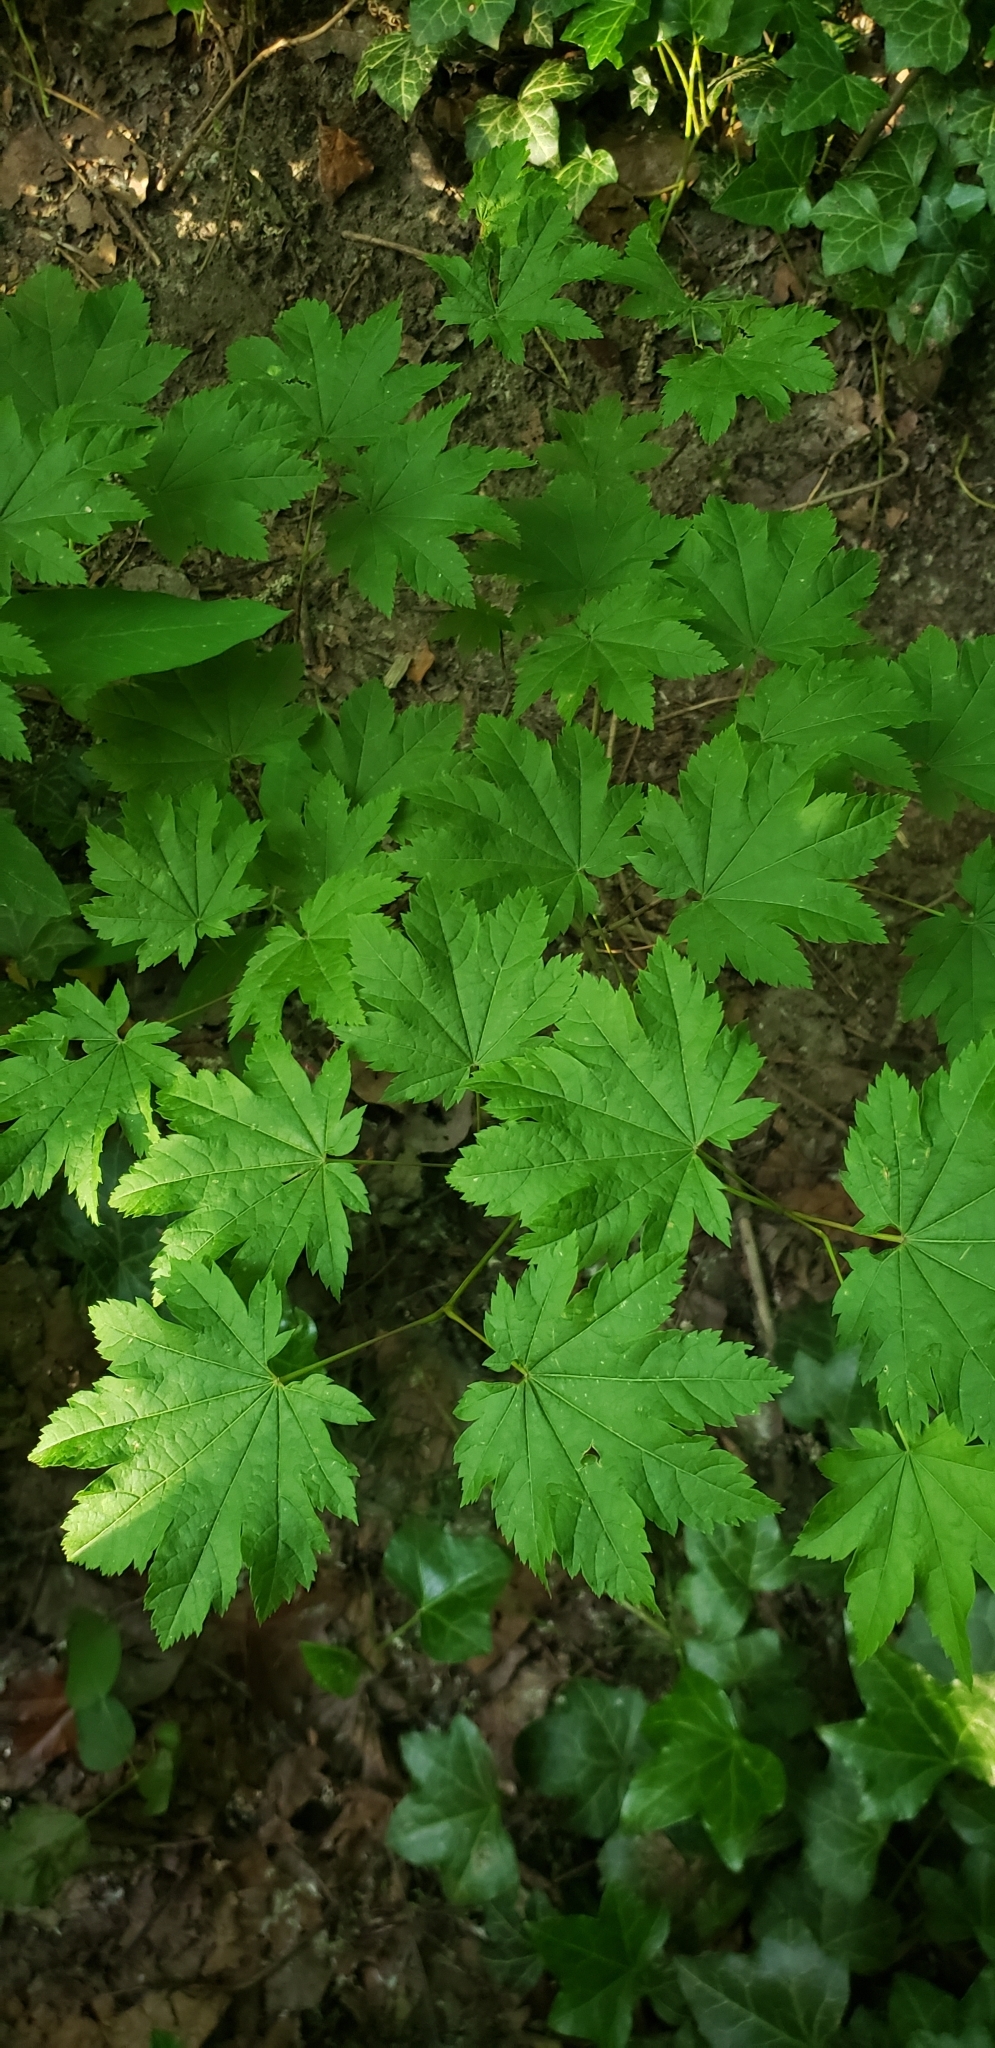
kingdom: Plantae
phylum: Tracheophyta
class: Magnoliopsida
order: Sapindales
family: Sapindaceae
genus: Acer
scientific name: Acer circinatum
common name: Vine maple
